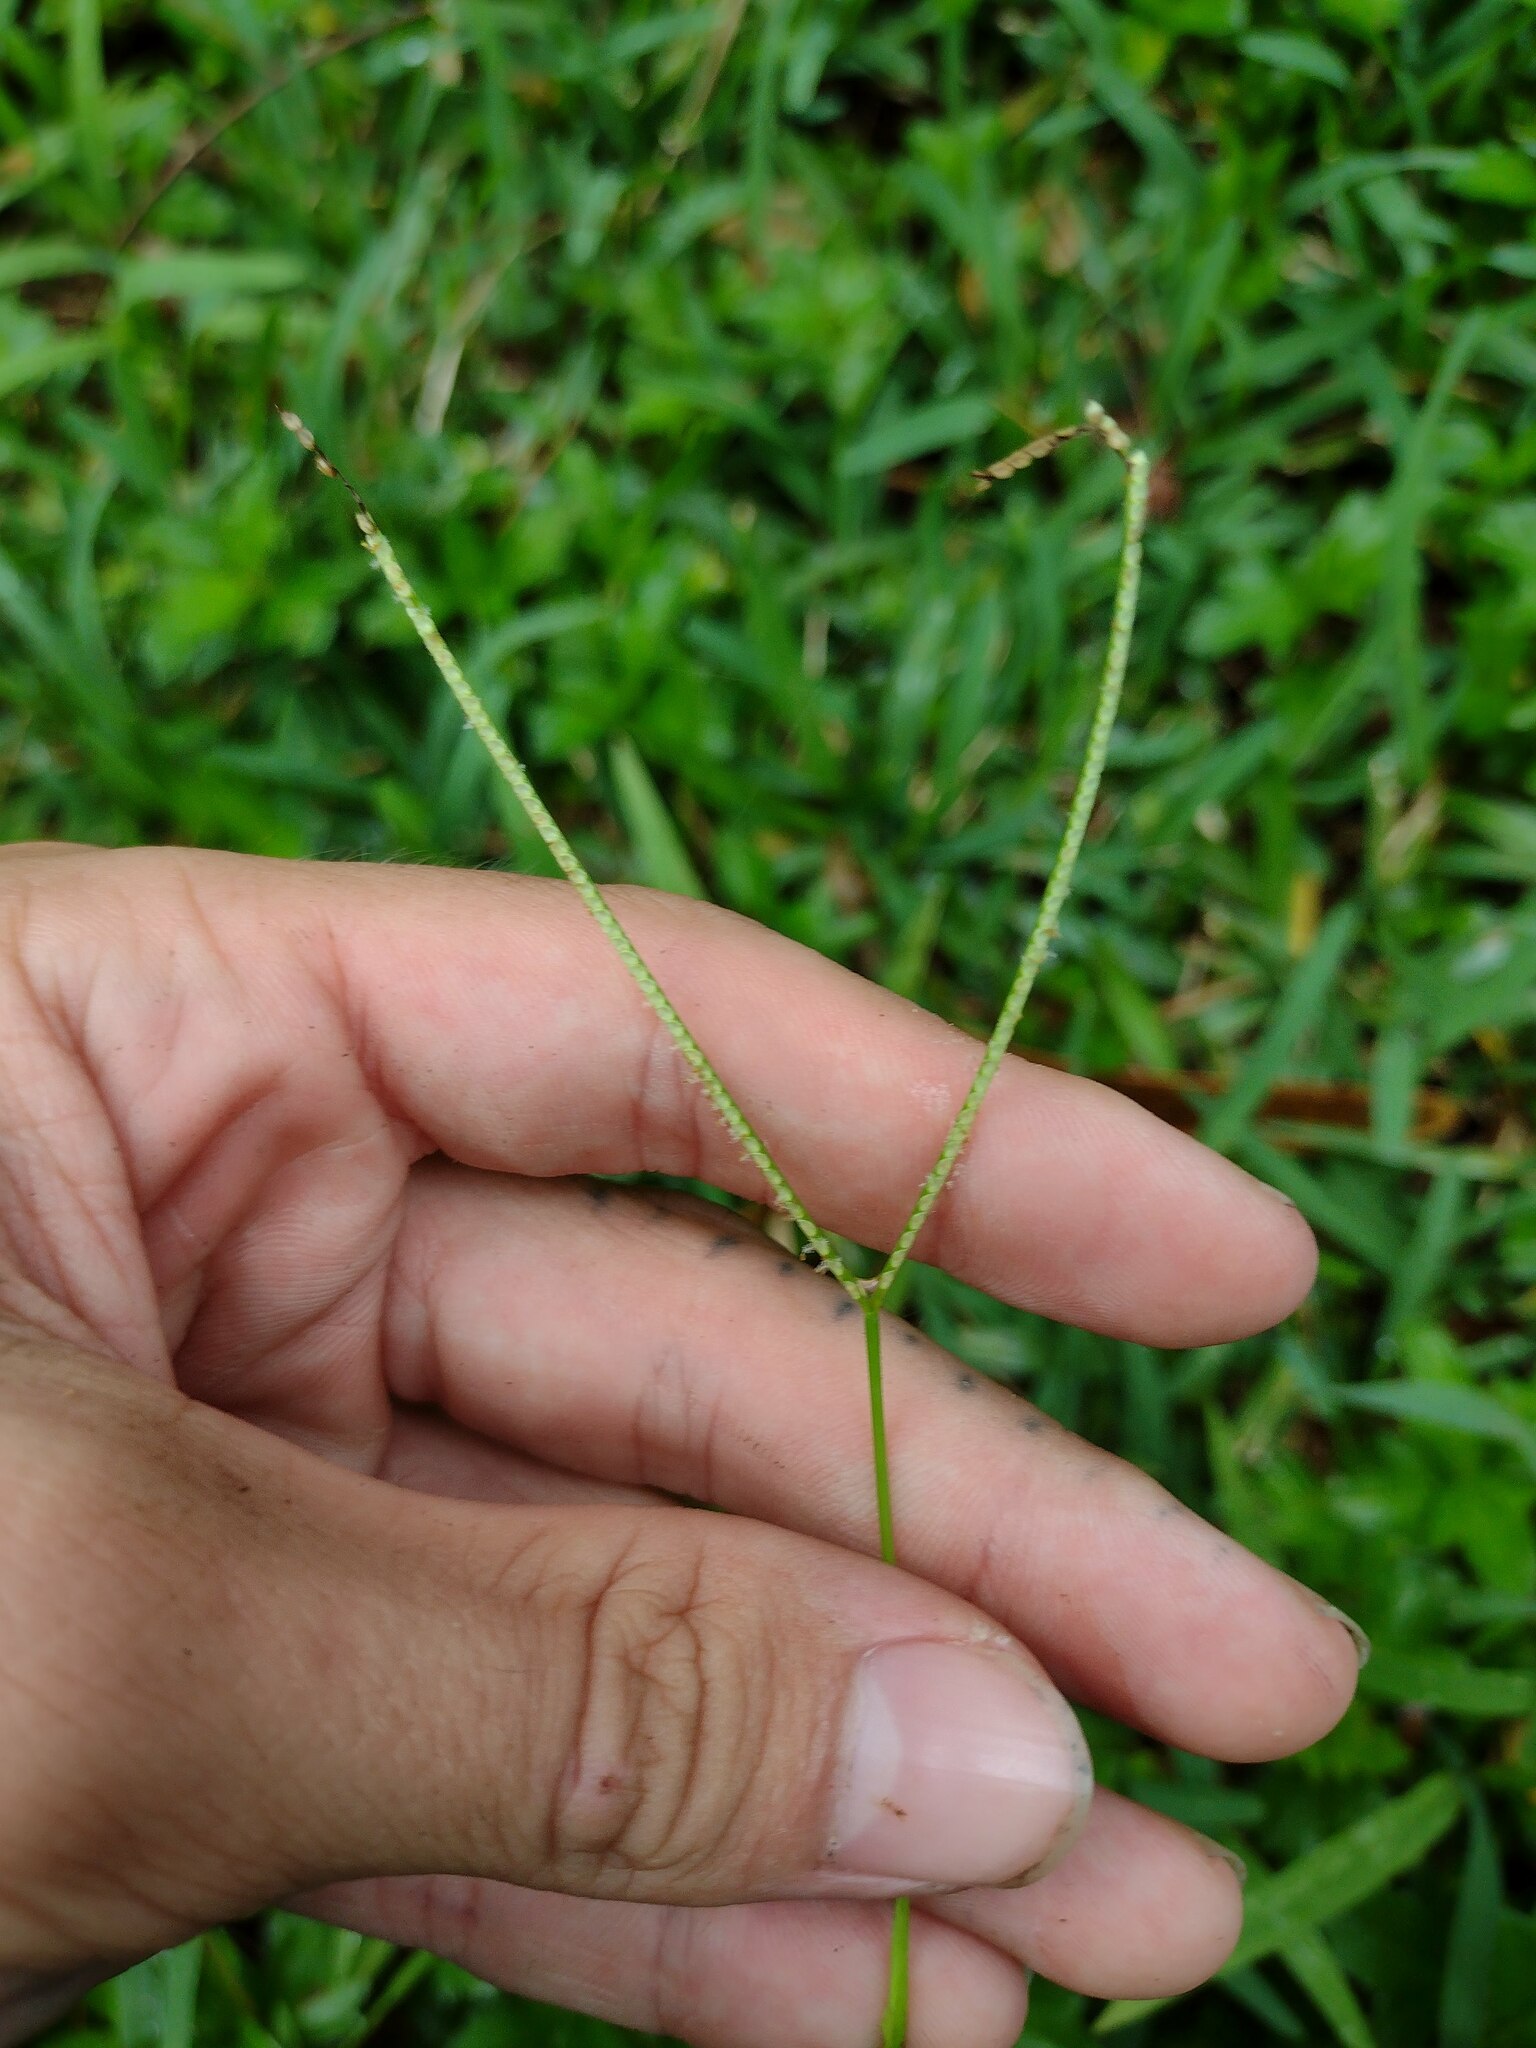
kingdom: Plantae
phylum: Tracheophyta
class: Liliopsida
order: Poales
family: Poaceae
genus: Paspalum
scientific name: Paspalum conjugatum
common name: Hilograss
